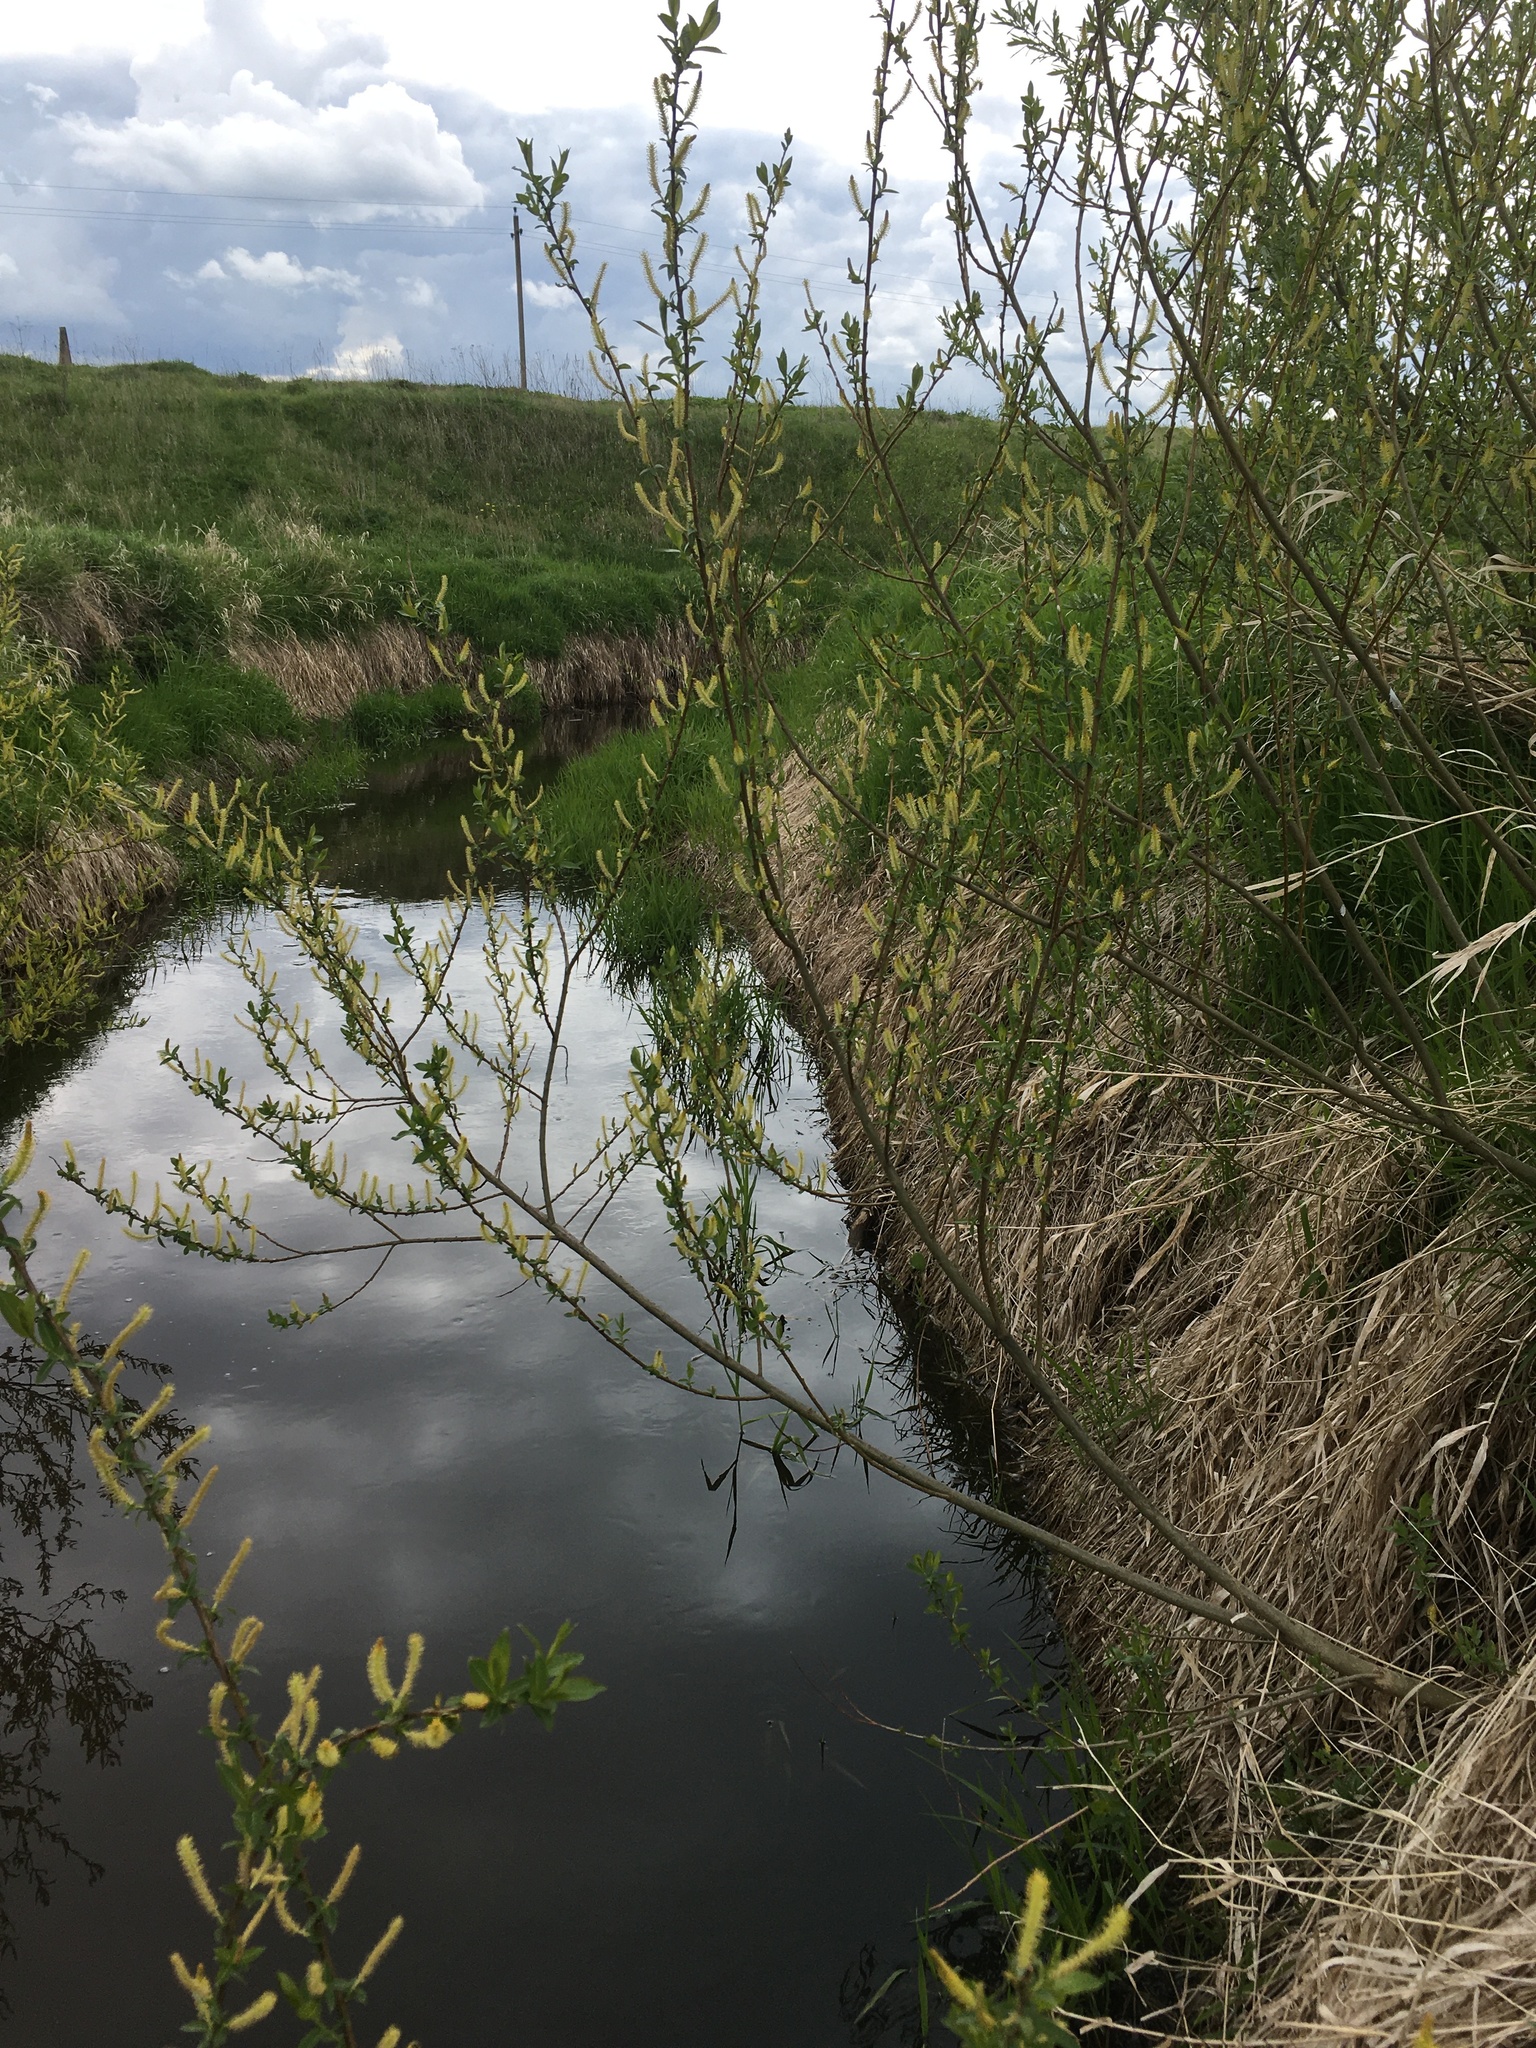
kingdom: Plantae
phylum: Tracheophyta
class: Magnoliopsida
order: Malpighiales
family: Salicaceae
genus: Salix
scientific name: Salix triandra
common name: Almond willow
